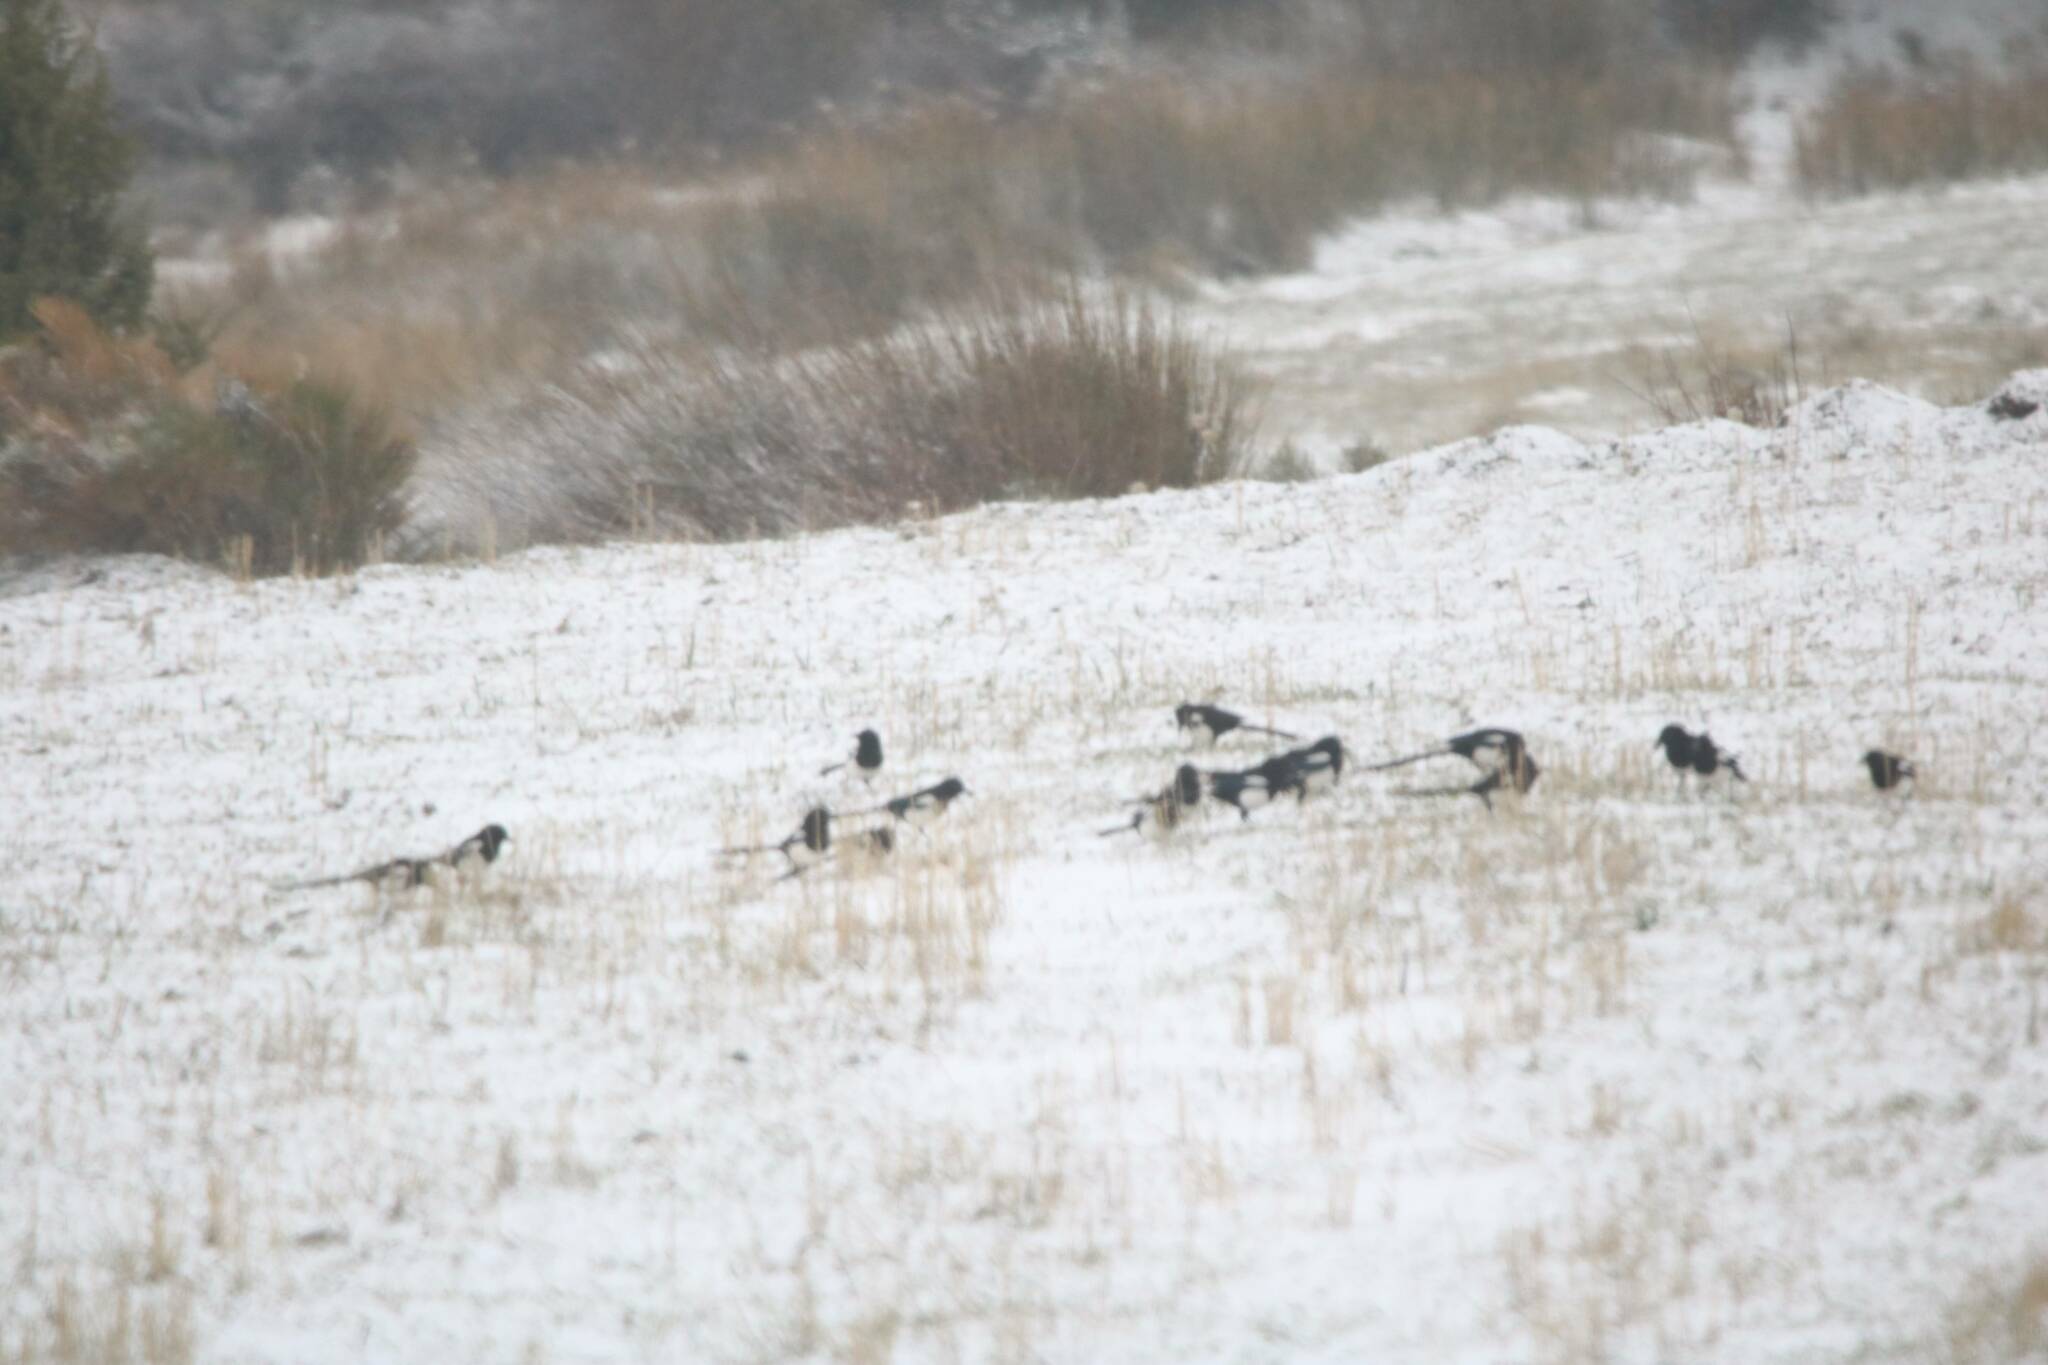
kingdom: Animalia
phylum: Chordata
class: Aves
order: Passeriformes
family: Corvidae
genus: Pica
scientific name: Pica mauritanica
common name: Maghreb magpie
